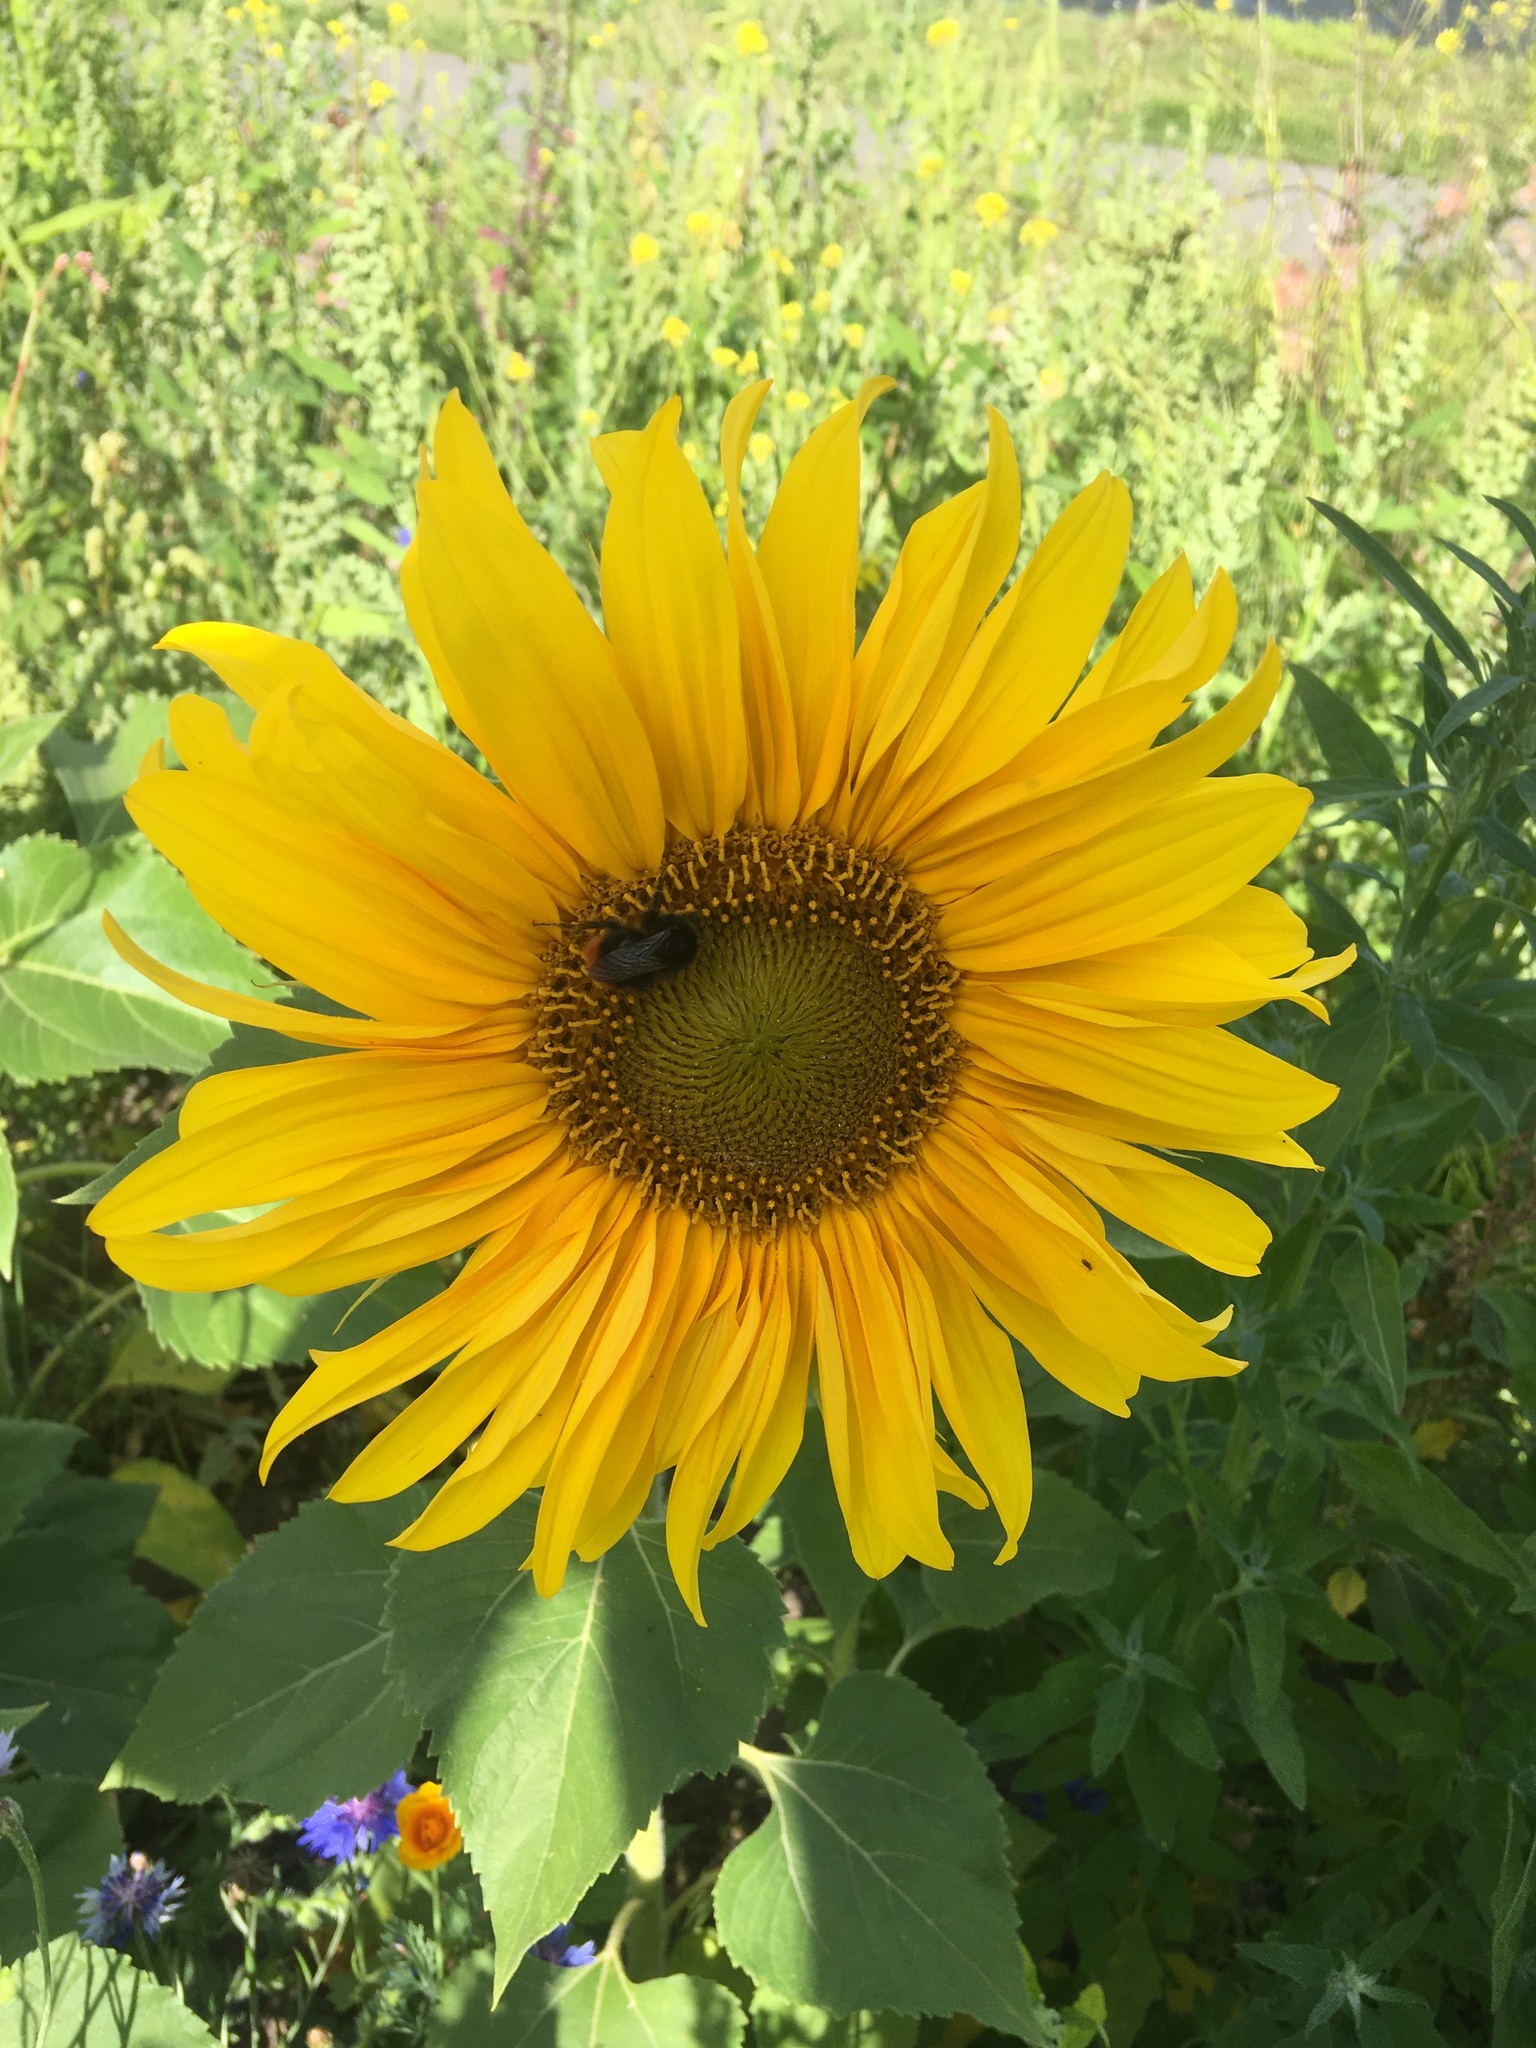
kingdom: Plantae
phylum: Tracheophyta
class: Magnoliopsida
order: Asterales
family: Asteraceae
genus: Helianthus
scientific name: Helianthus annuus
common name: Sunflower
